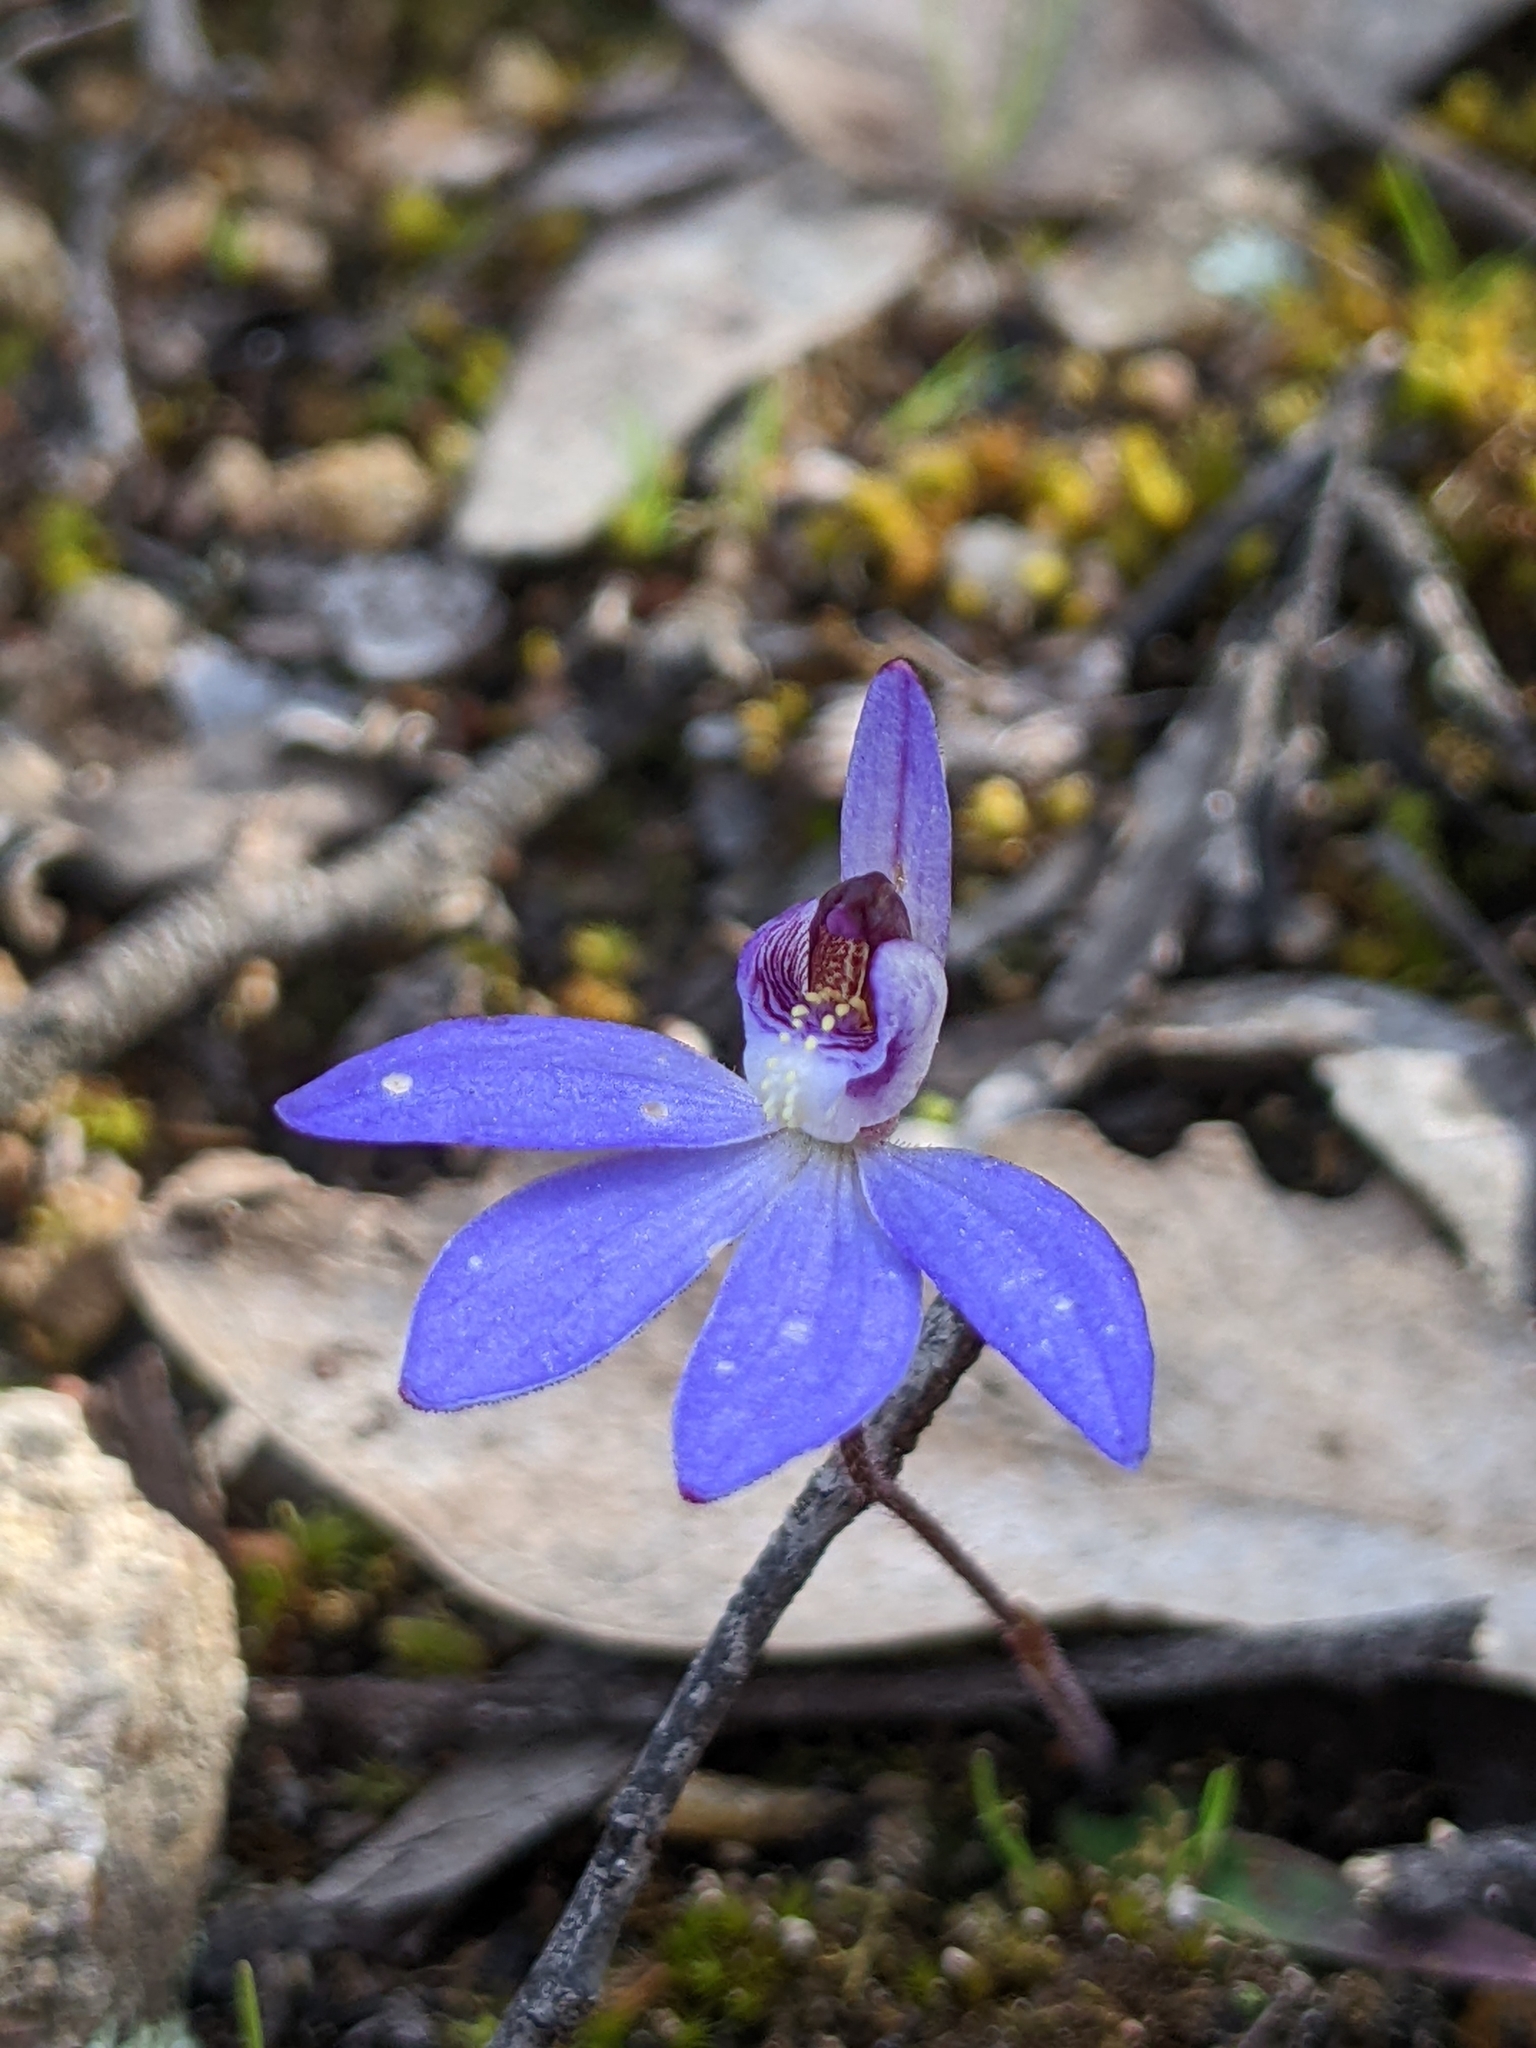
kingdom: Plantae
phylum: Tracheophyta
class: Liliopsida
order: Asparagales
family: Orchidaceae
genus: Caladenia
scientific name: Caladenia caerulea
